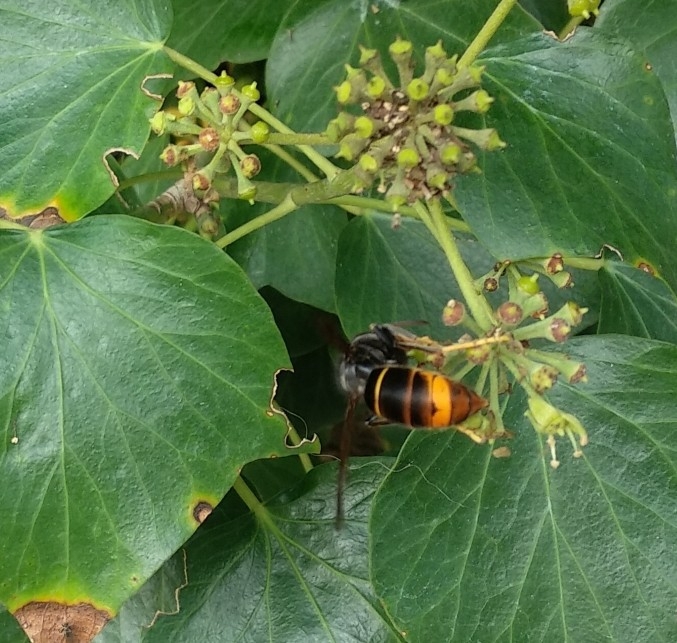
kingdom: Animalia
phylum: Arthropoda
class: Insecta
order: Hymenoptera
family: Vespidae
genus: Vespa
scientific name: Vespa velutina
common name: Asian hornet
